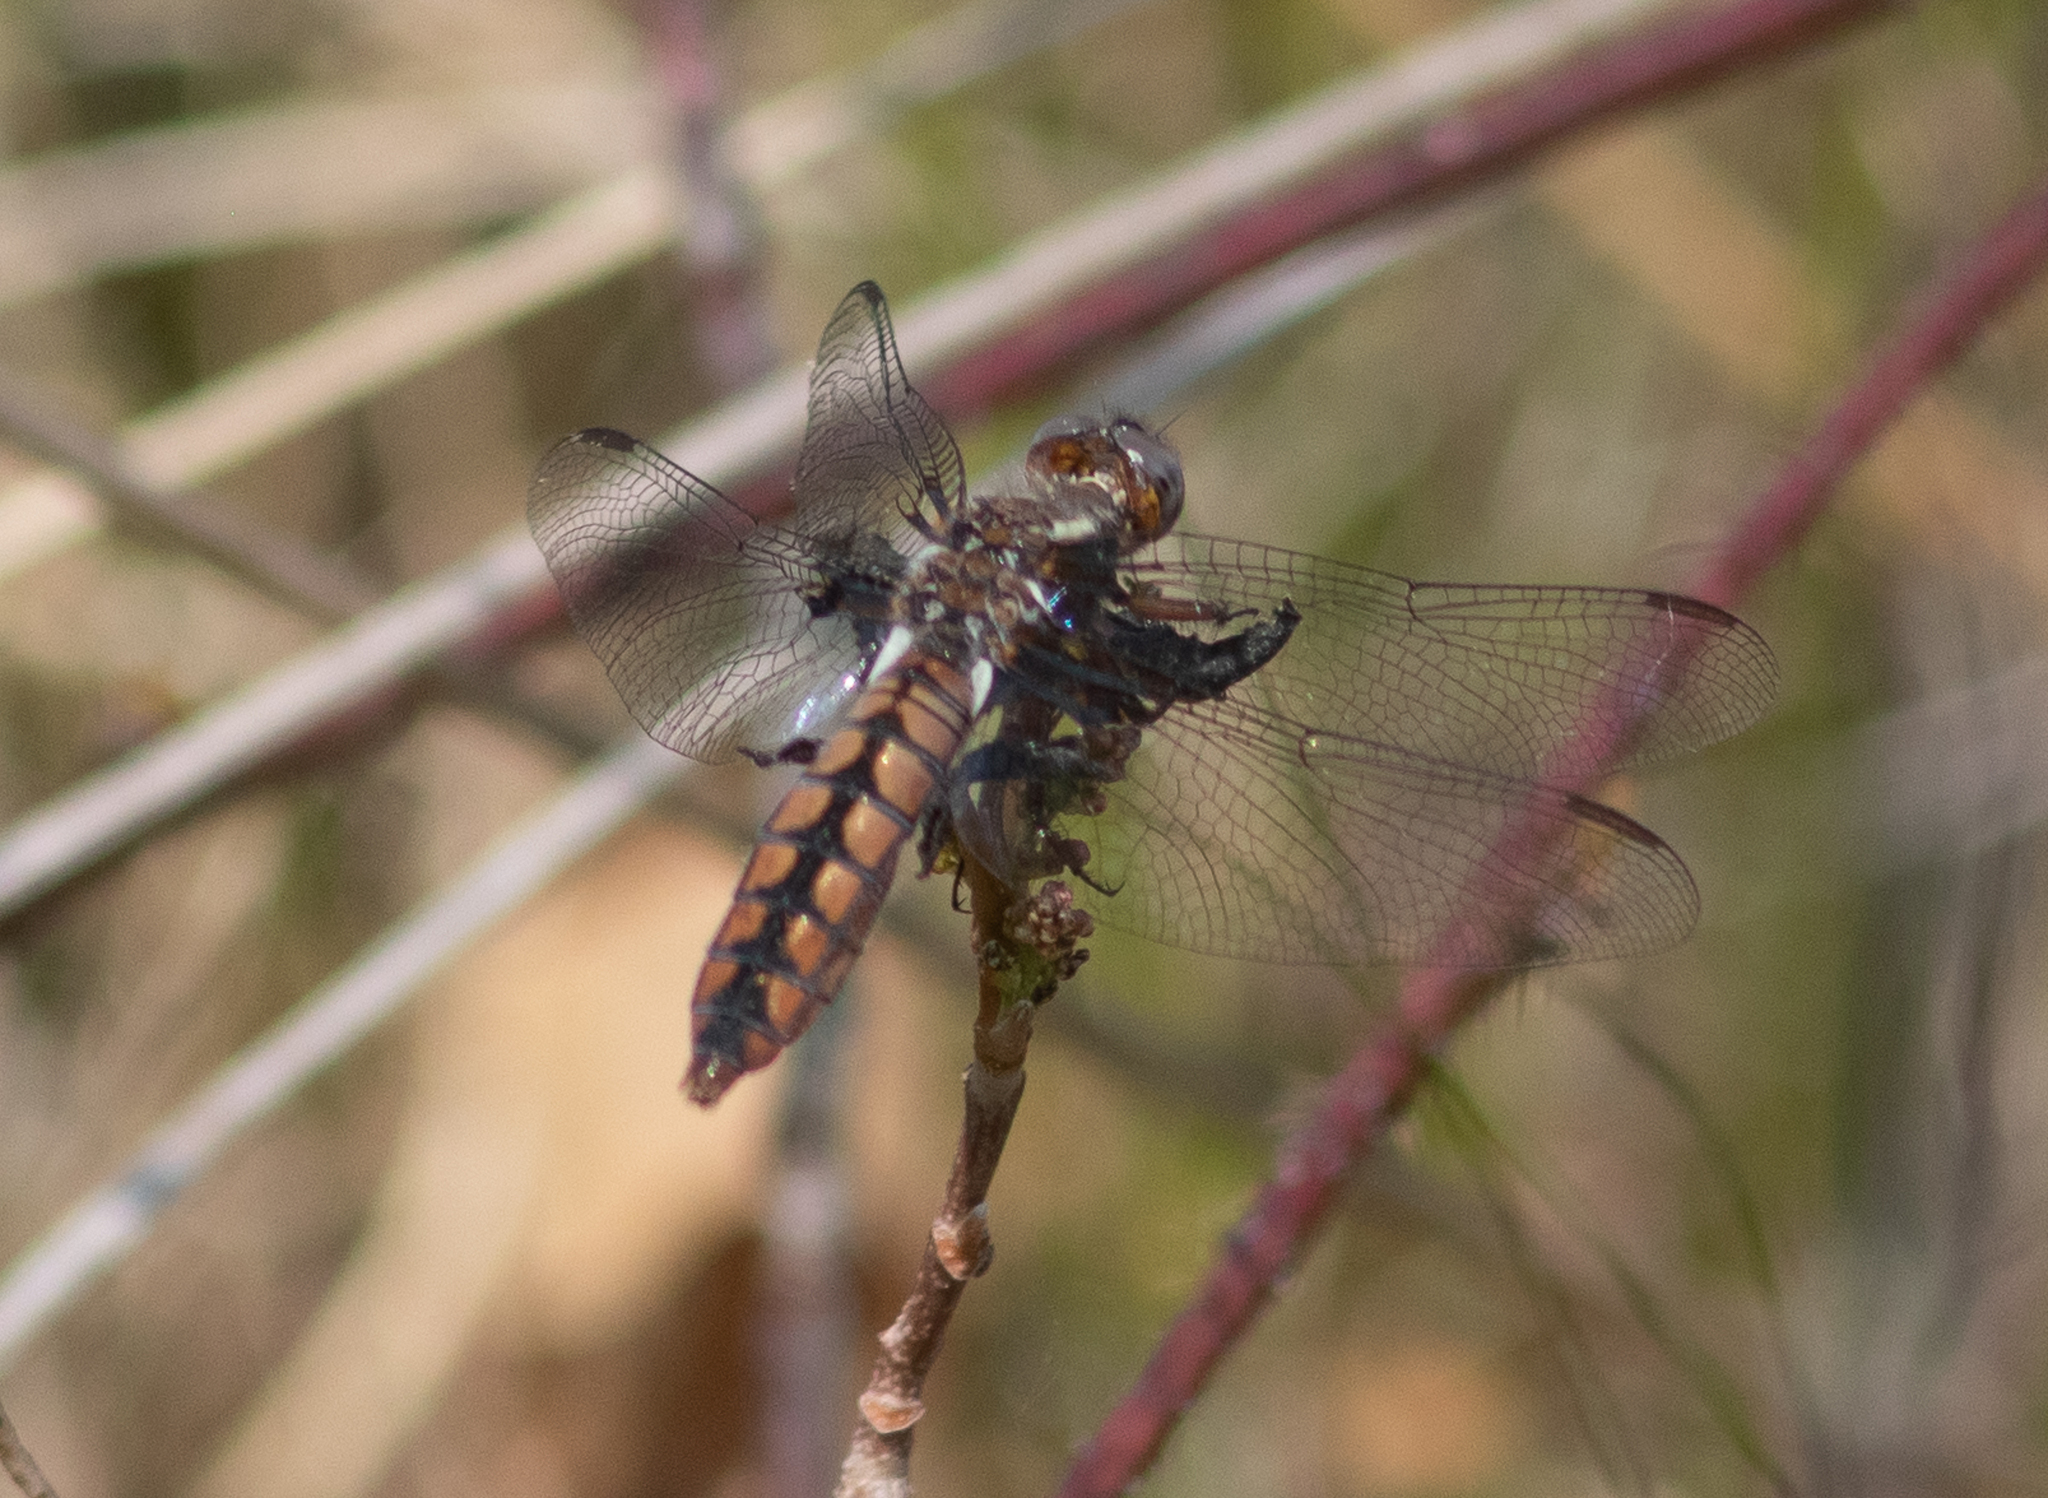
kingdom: Animalia
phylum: Arthropoda
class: Insecta
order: Odonata
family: Libellulidae
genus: Ladona
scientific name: Ladona deplanata
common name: Blue corporal
